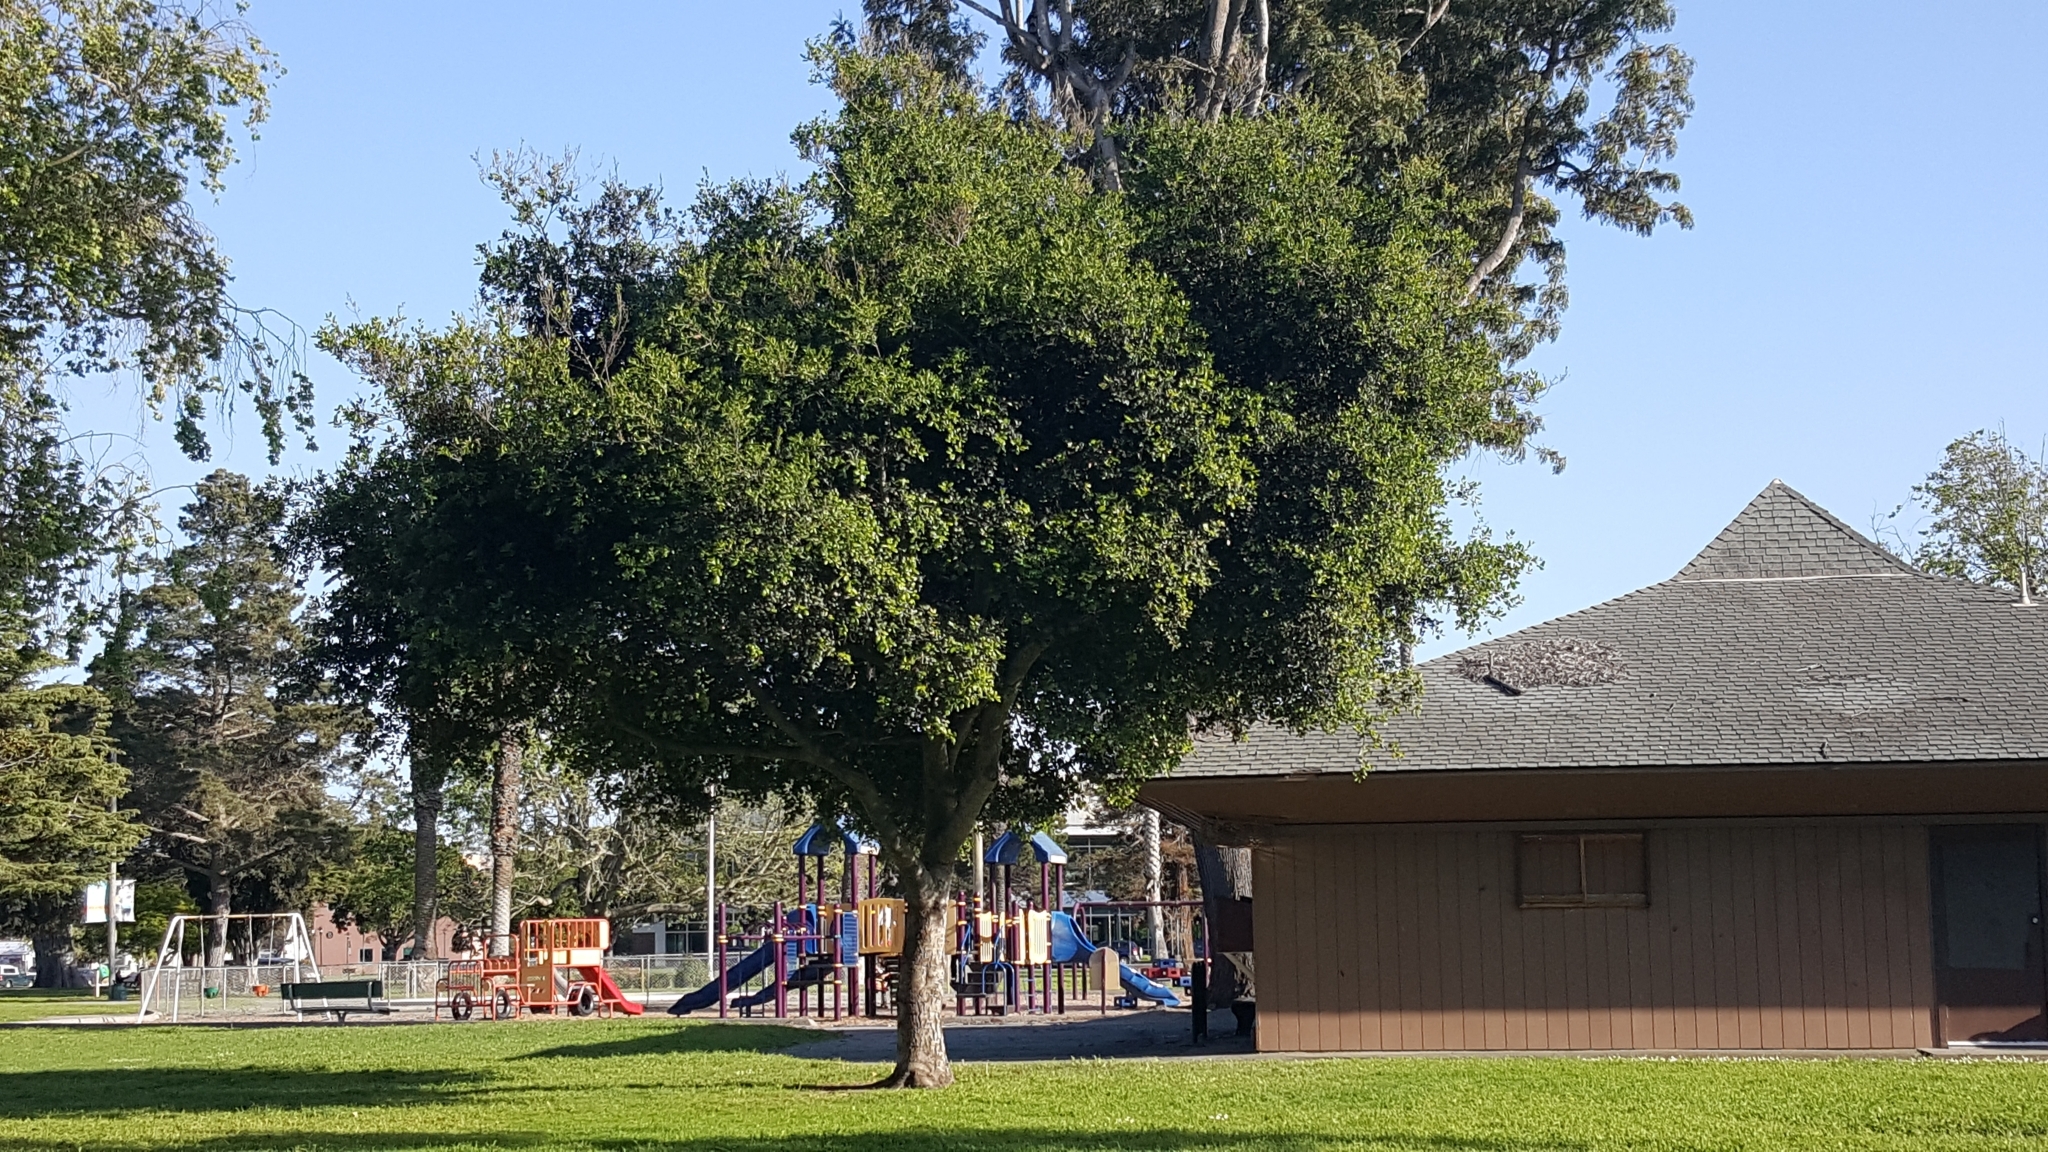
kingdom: Plantae
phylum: Tracheophyta
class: Magnoliopsida
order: Fagales
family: Fagaceae
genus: Quercus
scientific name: Quercus agrifolia
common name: California live oak
